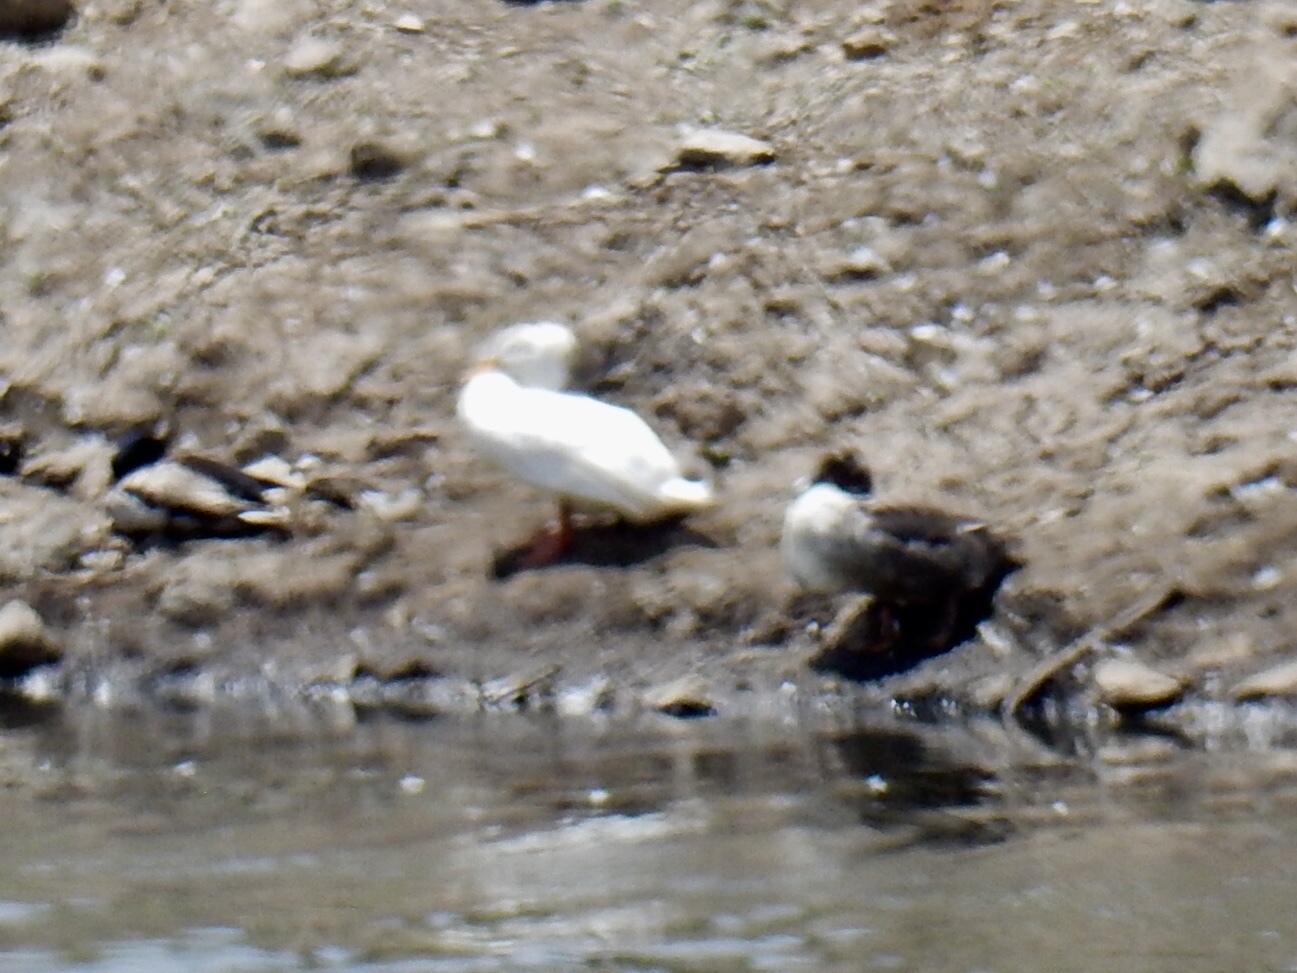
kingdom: Animalia
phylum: Chordata
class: Aves
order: Anseriformes
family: Anatidae
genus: Anas
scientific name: Anas platyrhynchos
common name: Mallard
